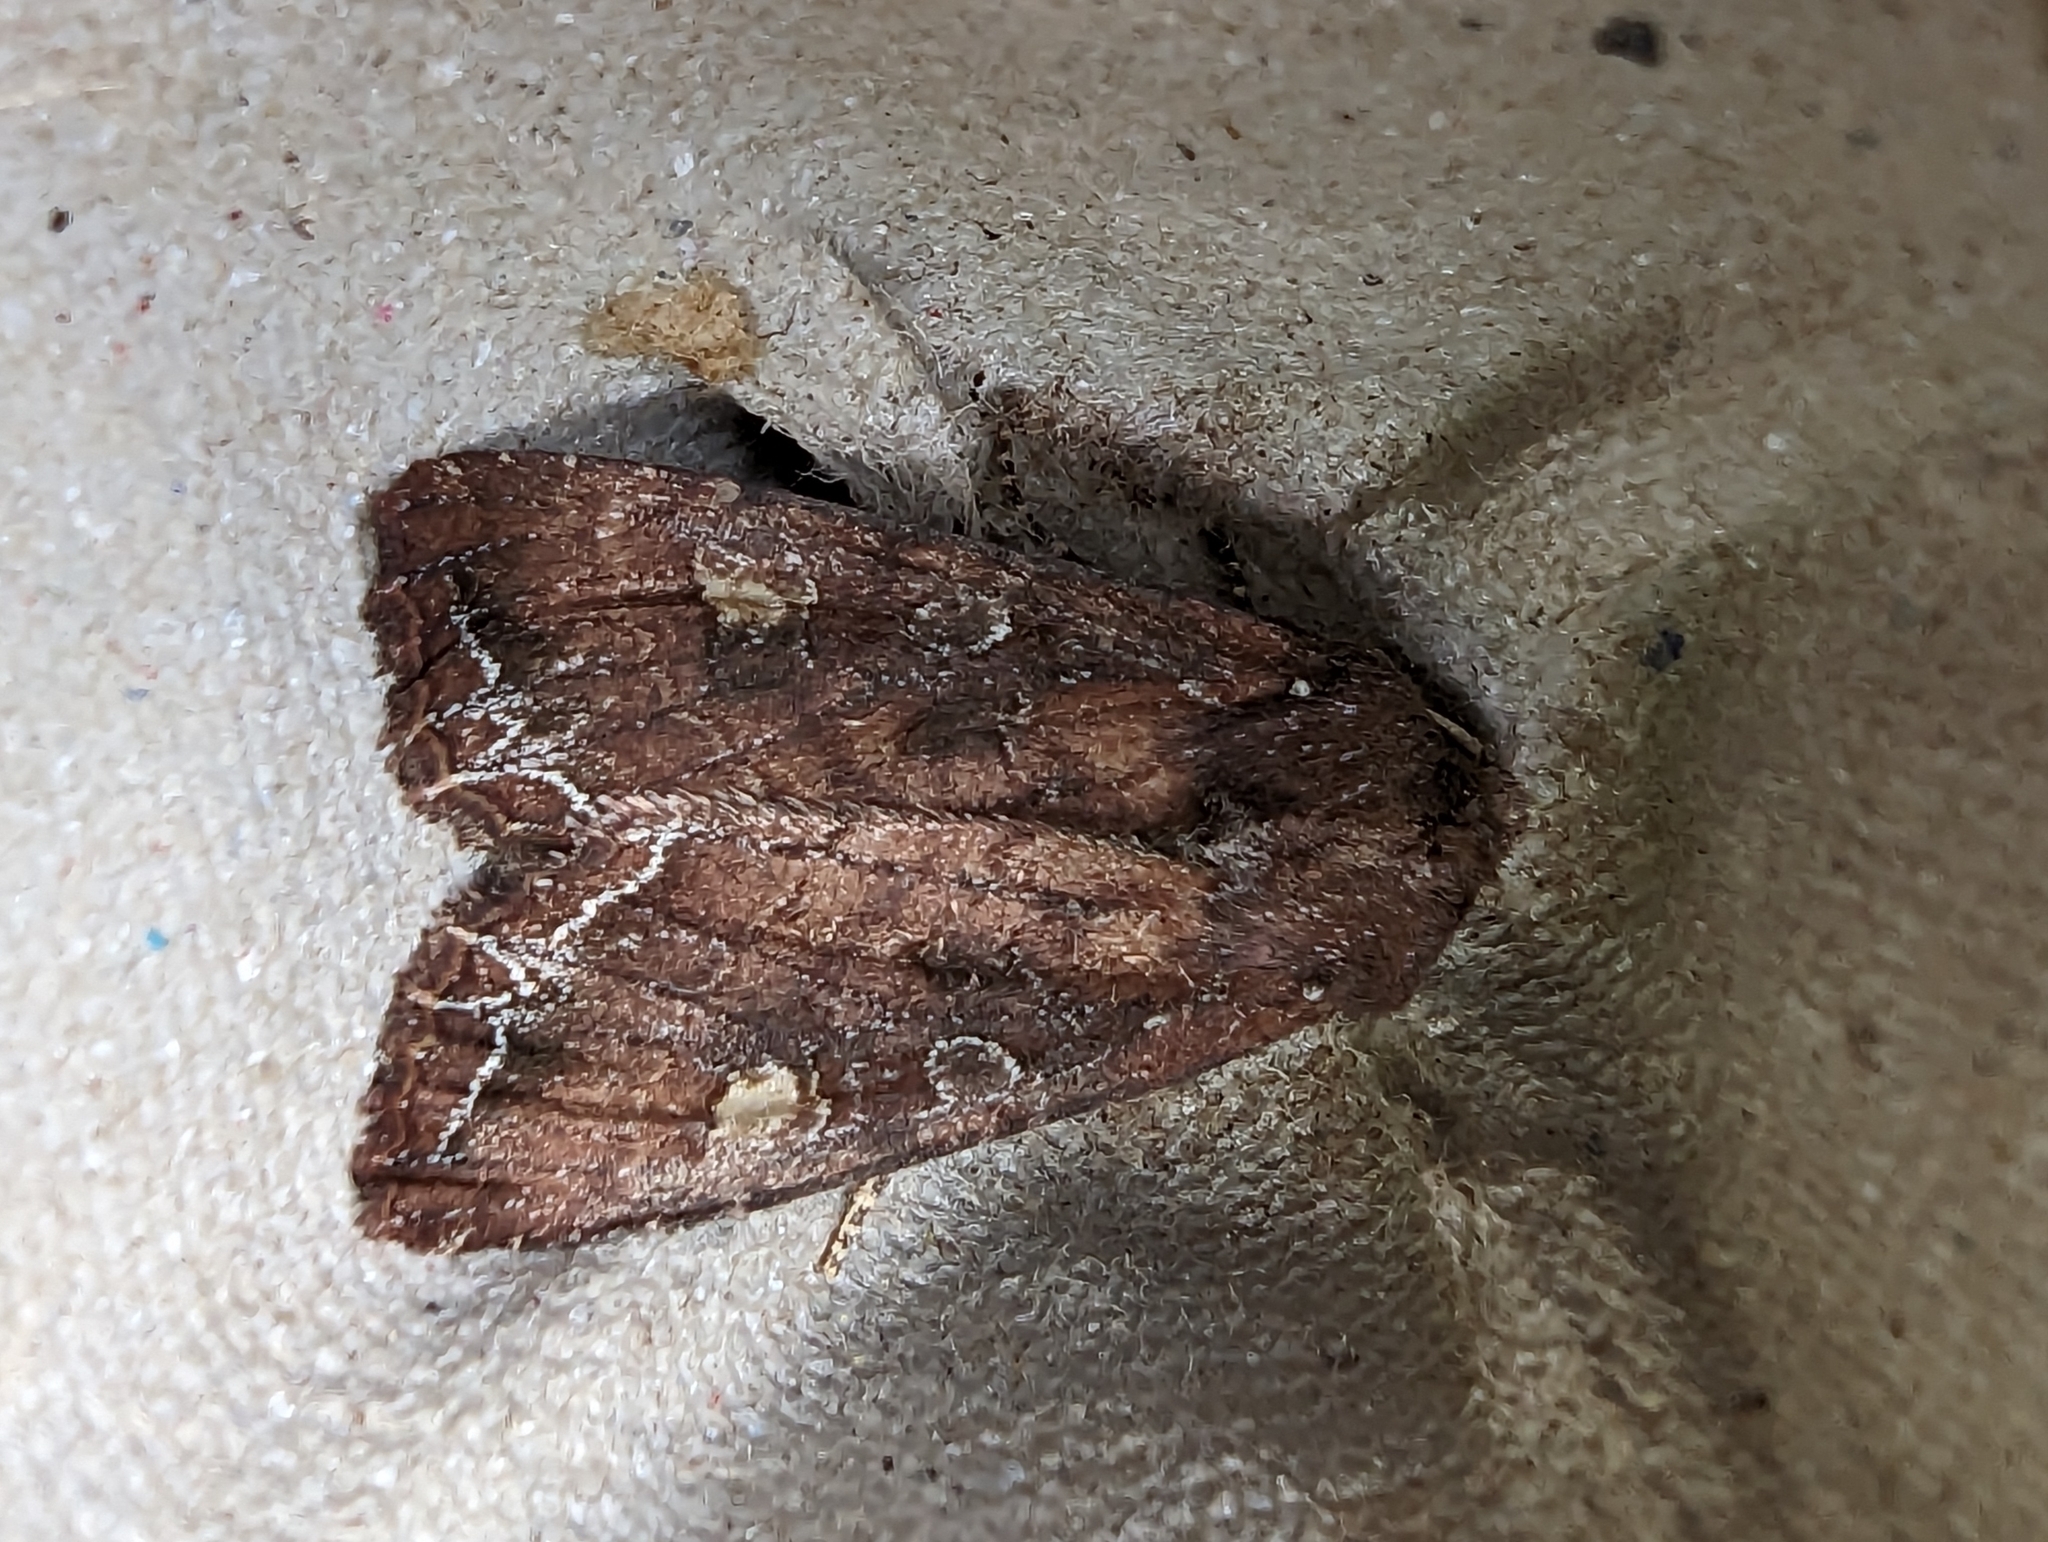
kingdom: Animalia
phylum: Arthropoda
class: Insecta
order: Lepidoptera
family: Noctuidae
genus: Lacanobia
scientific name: Lacanobia oleracea
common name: Bright-line brown-eye
